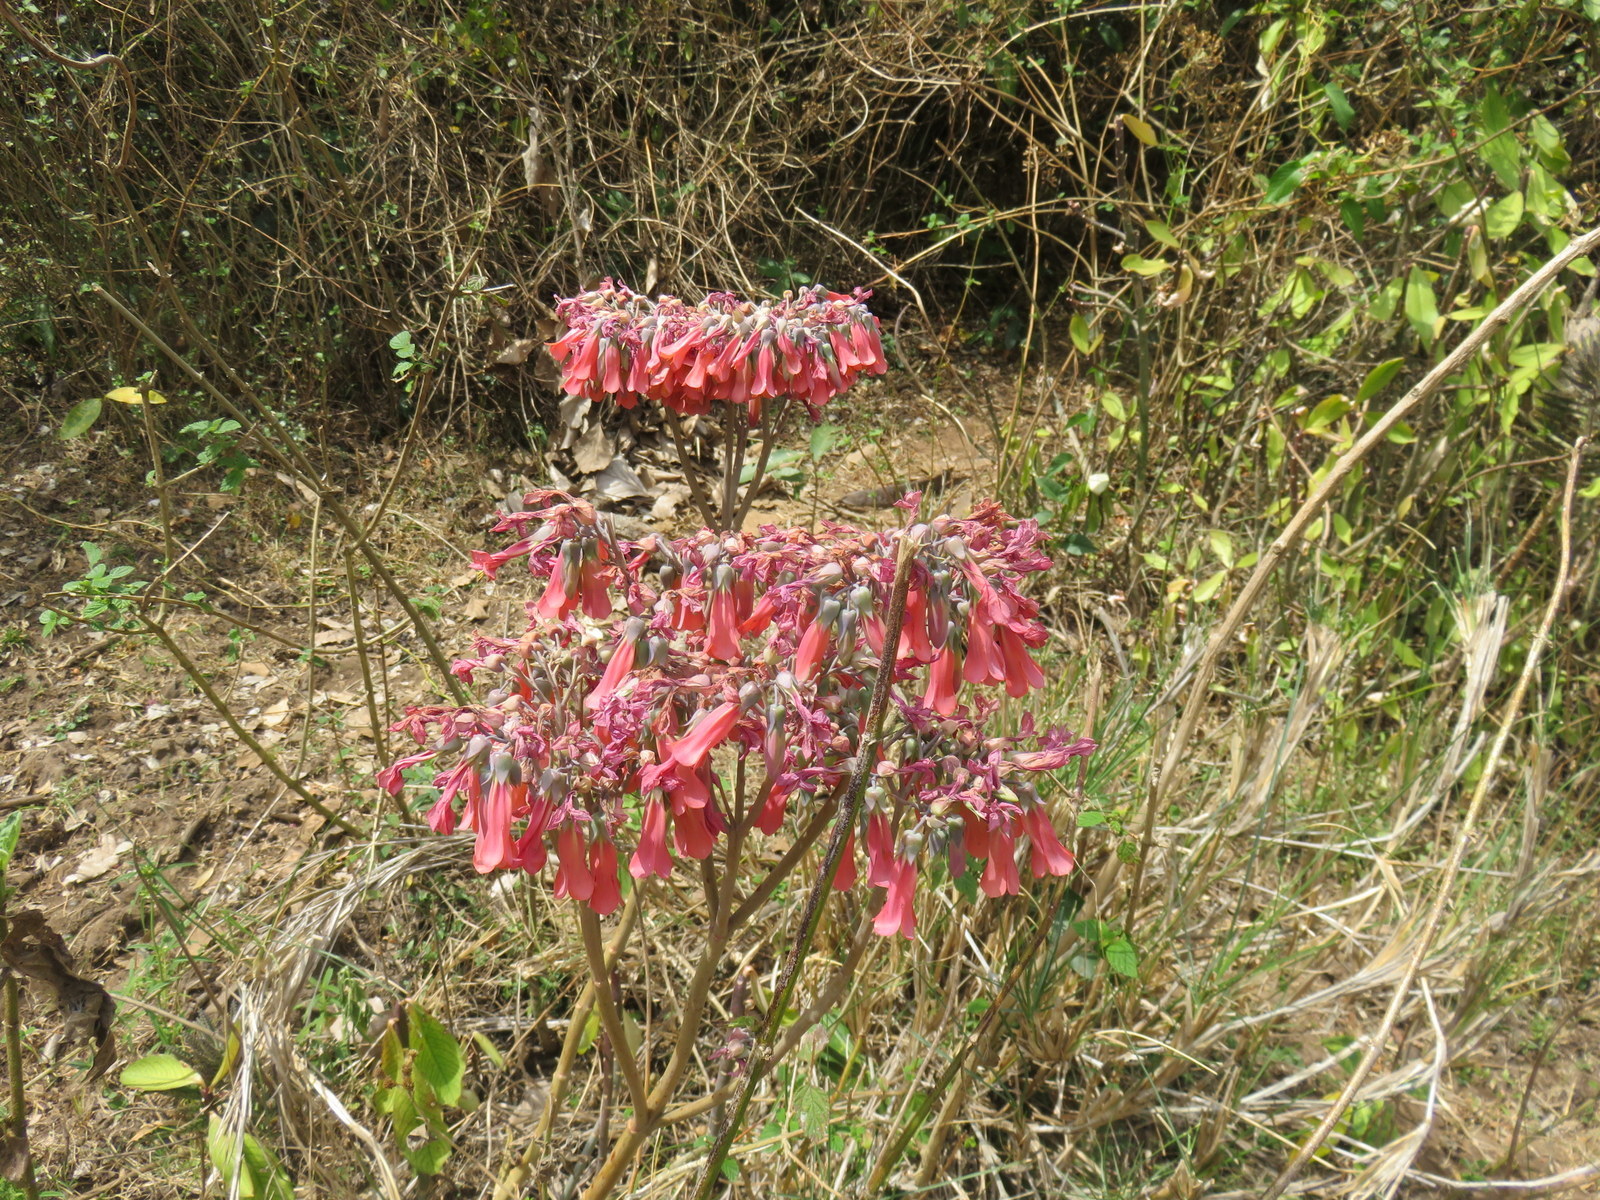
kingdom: Chromista
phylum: Ciliophora
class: Gymnostomatea
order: Spathidiida
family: Spathidiidae
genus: Bryophyllum
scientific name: Bryophyllum
